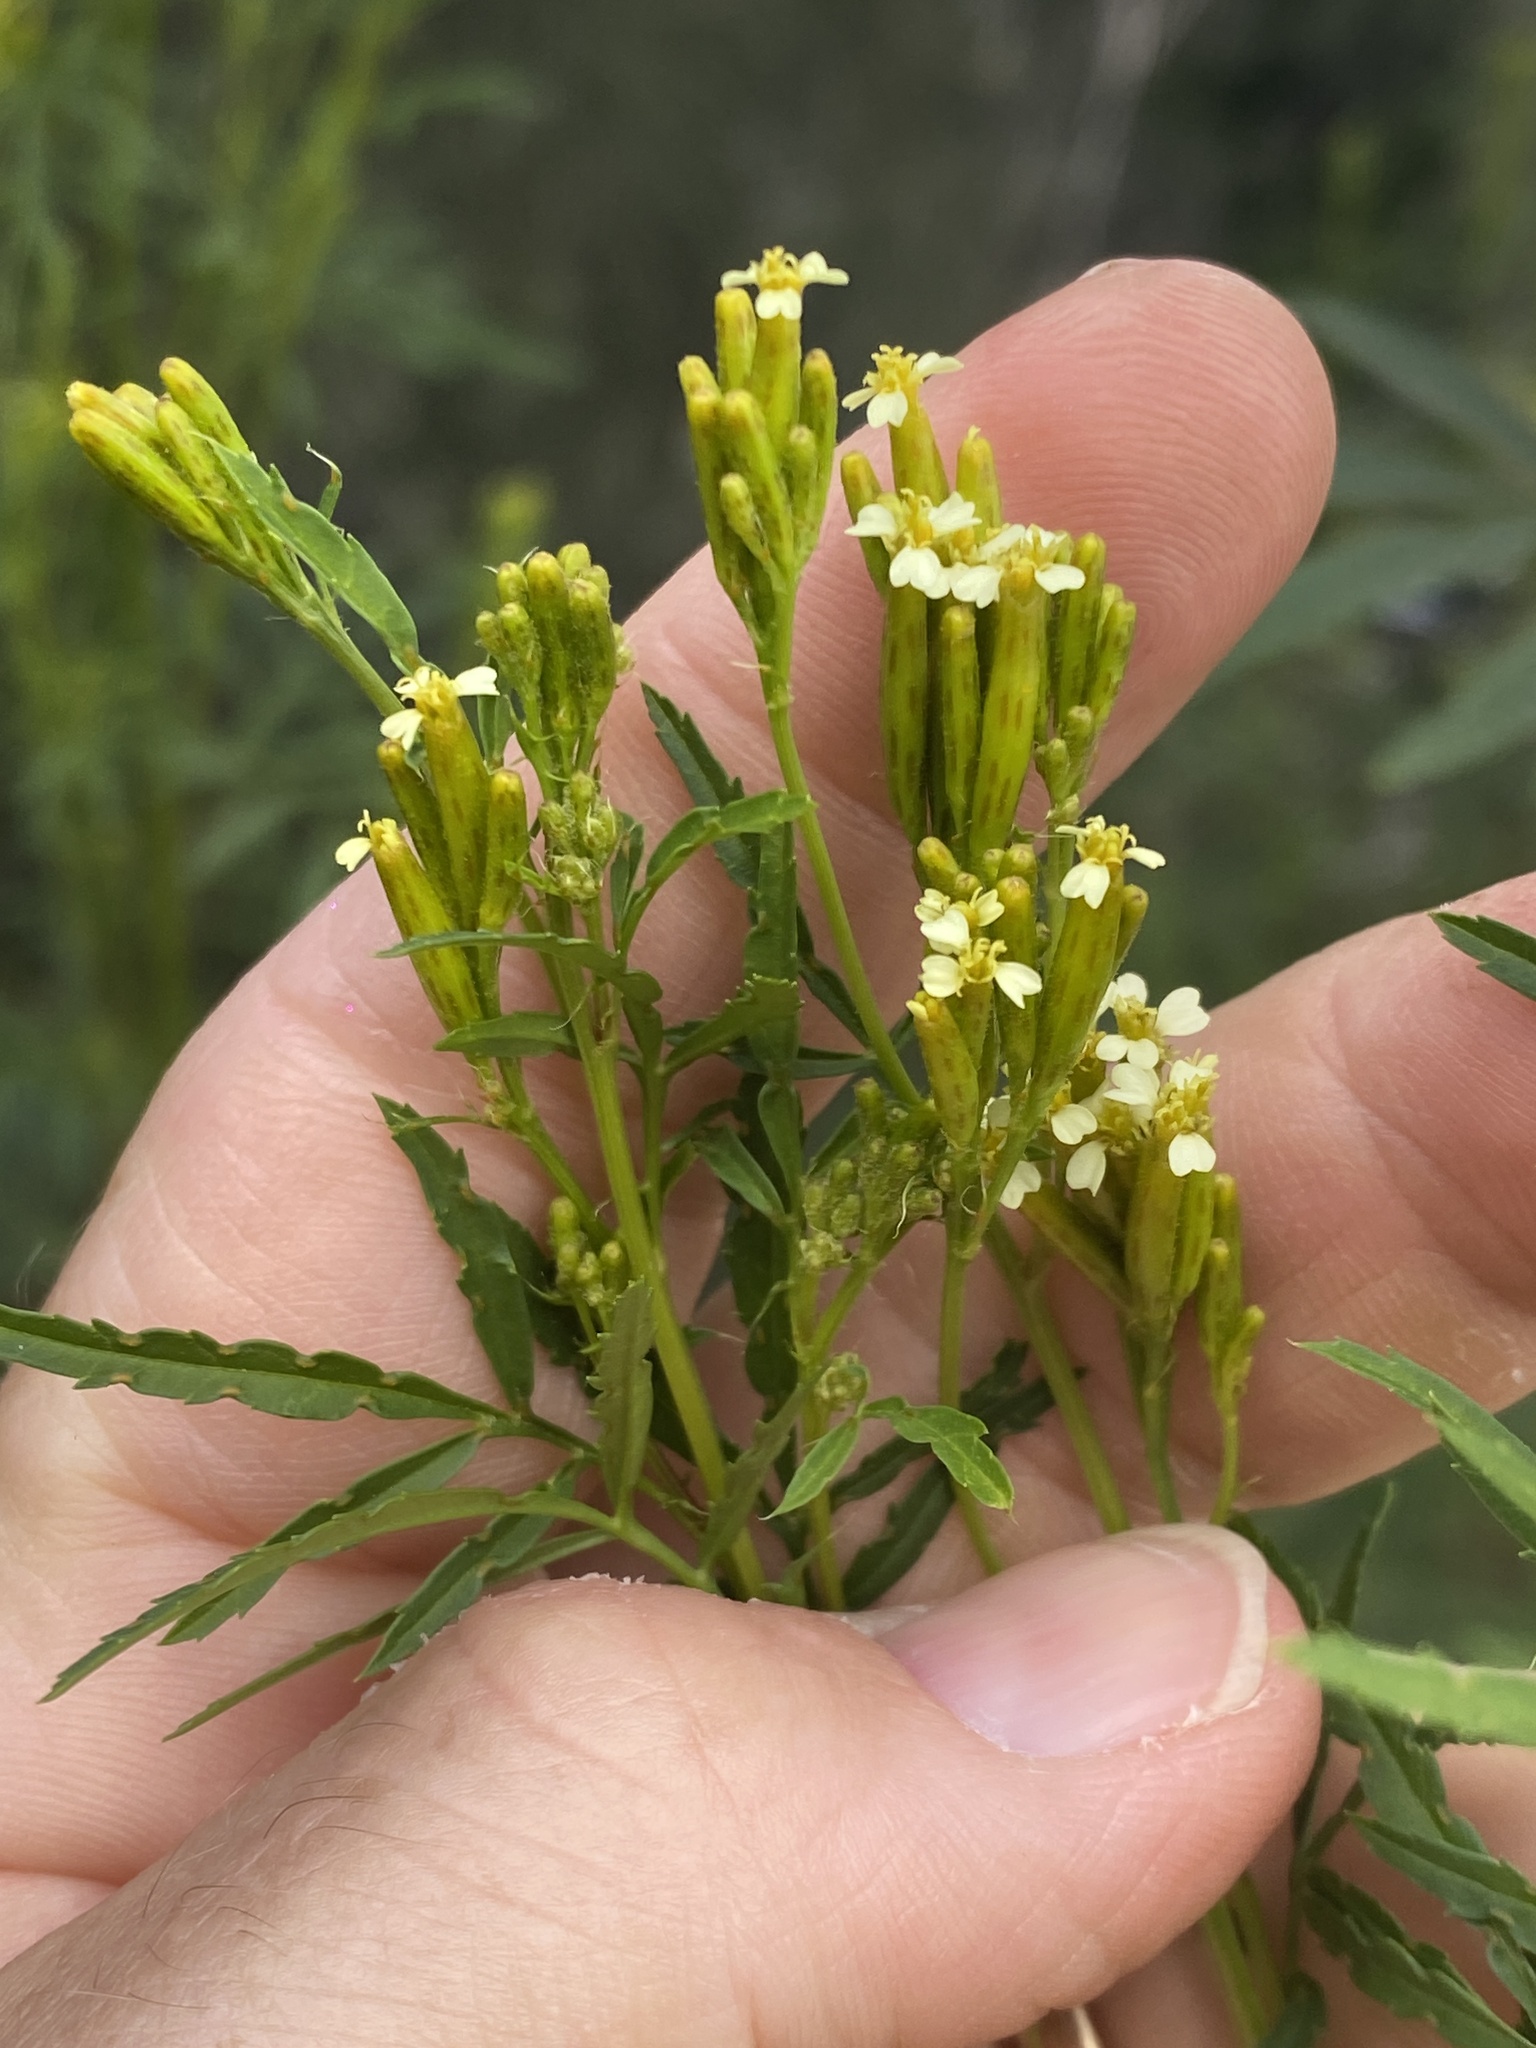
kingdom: Plantae
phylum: Tracheophyta
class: Magnoliopsida
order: Asterales
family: Asteraceae
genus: Tagetes
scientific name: Tagetes minuta
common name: Muster john henry
